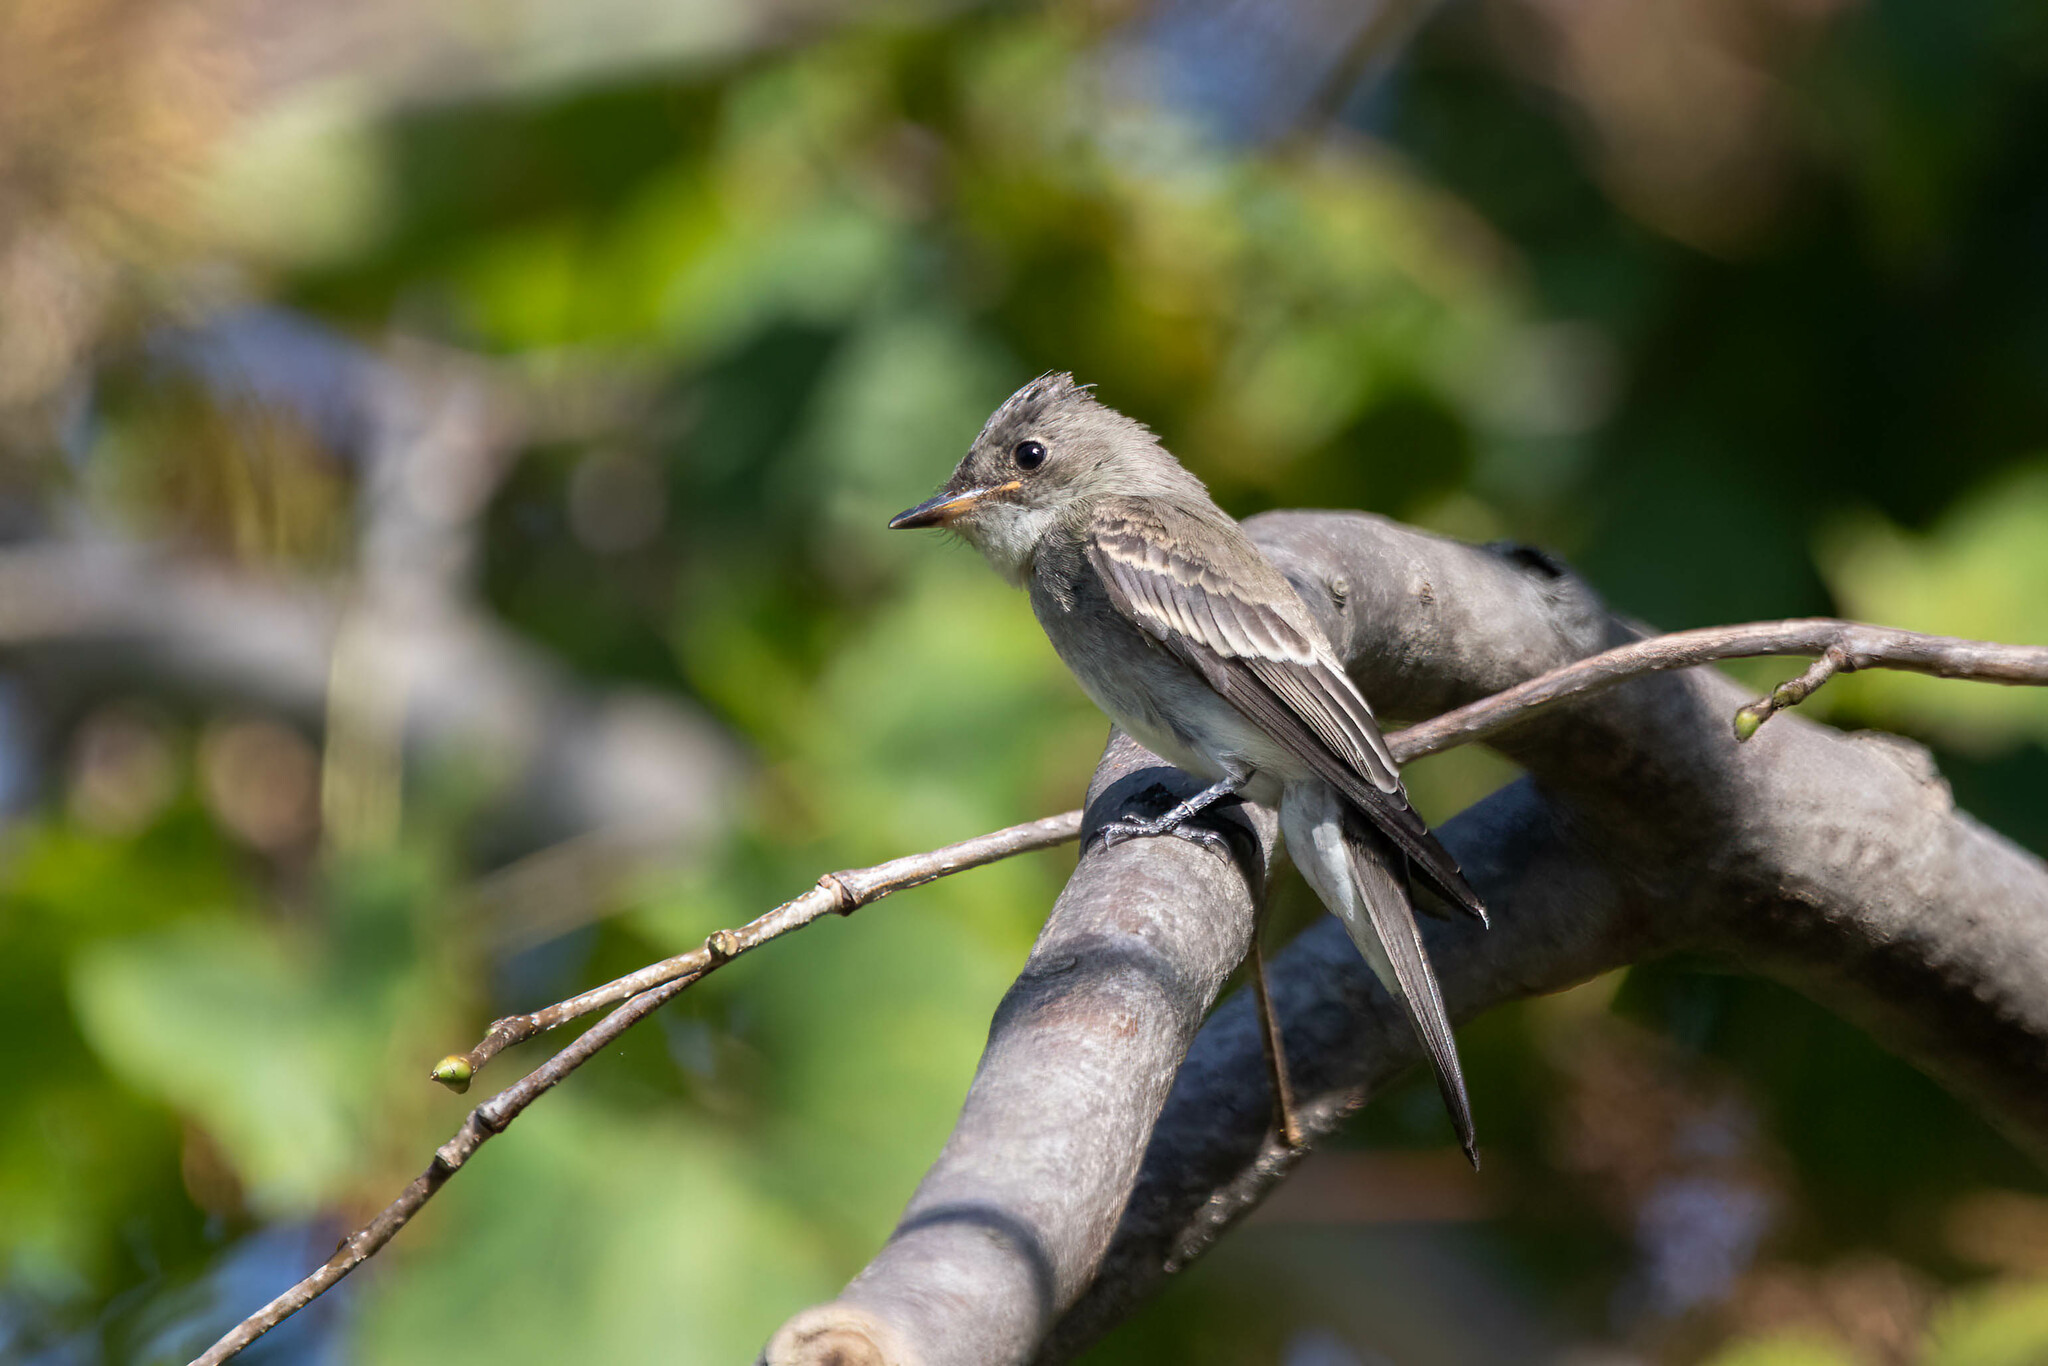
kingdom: Animalia
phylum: Chordata
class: Aves
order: Passeriformes
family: Tyrannidae
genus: Contopus
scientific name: Contopus virens
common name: Eastern wood-pewee
